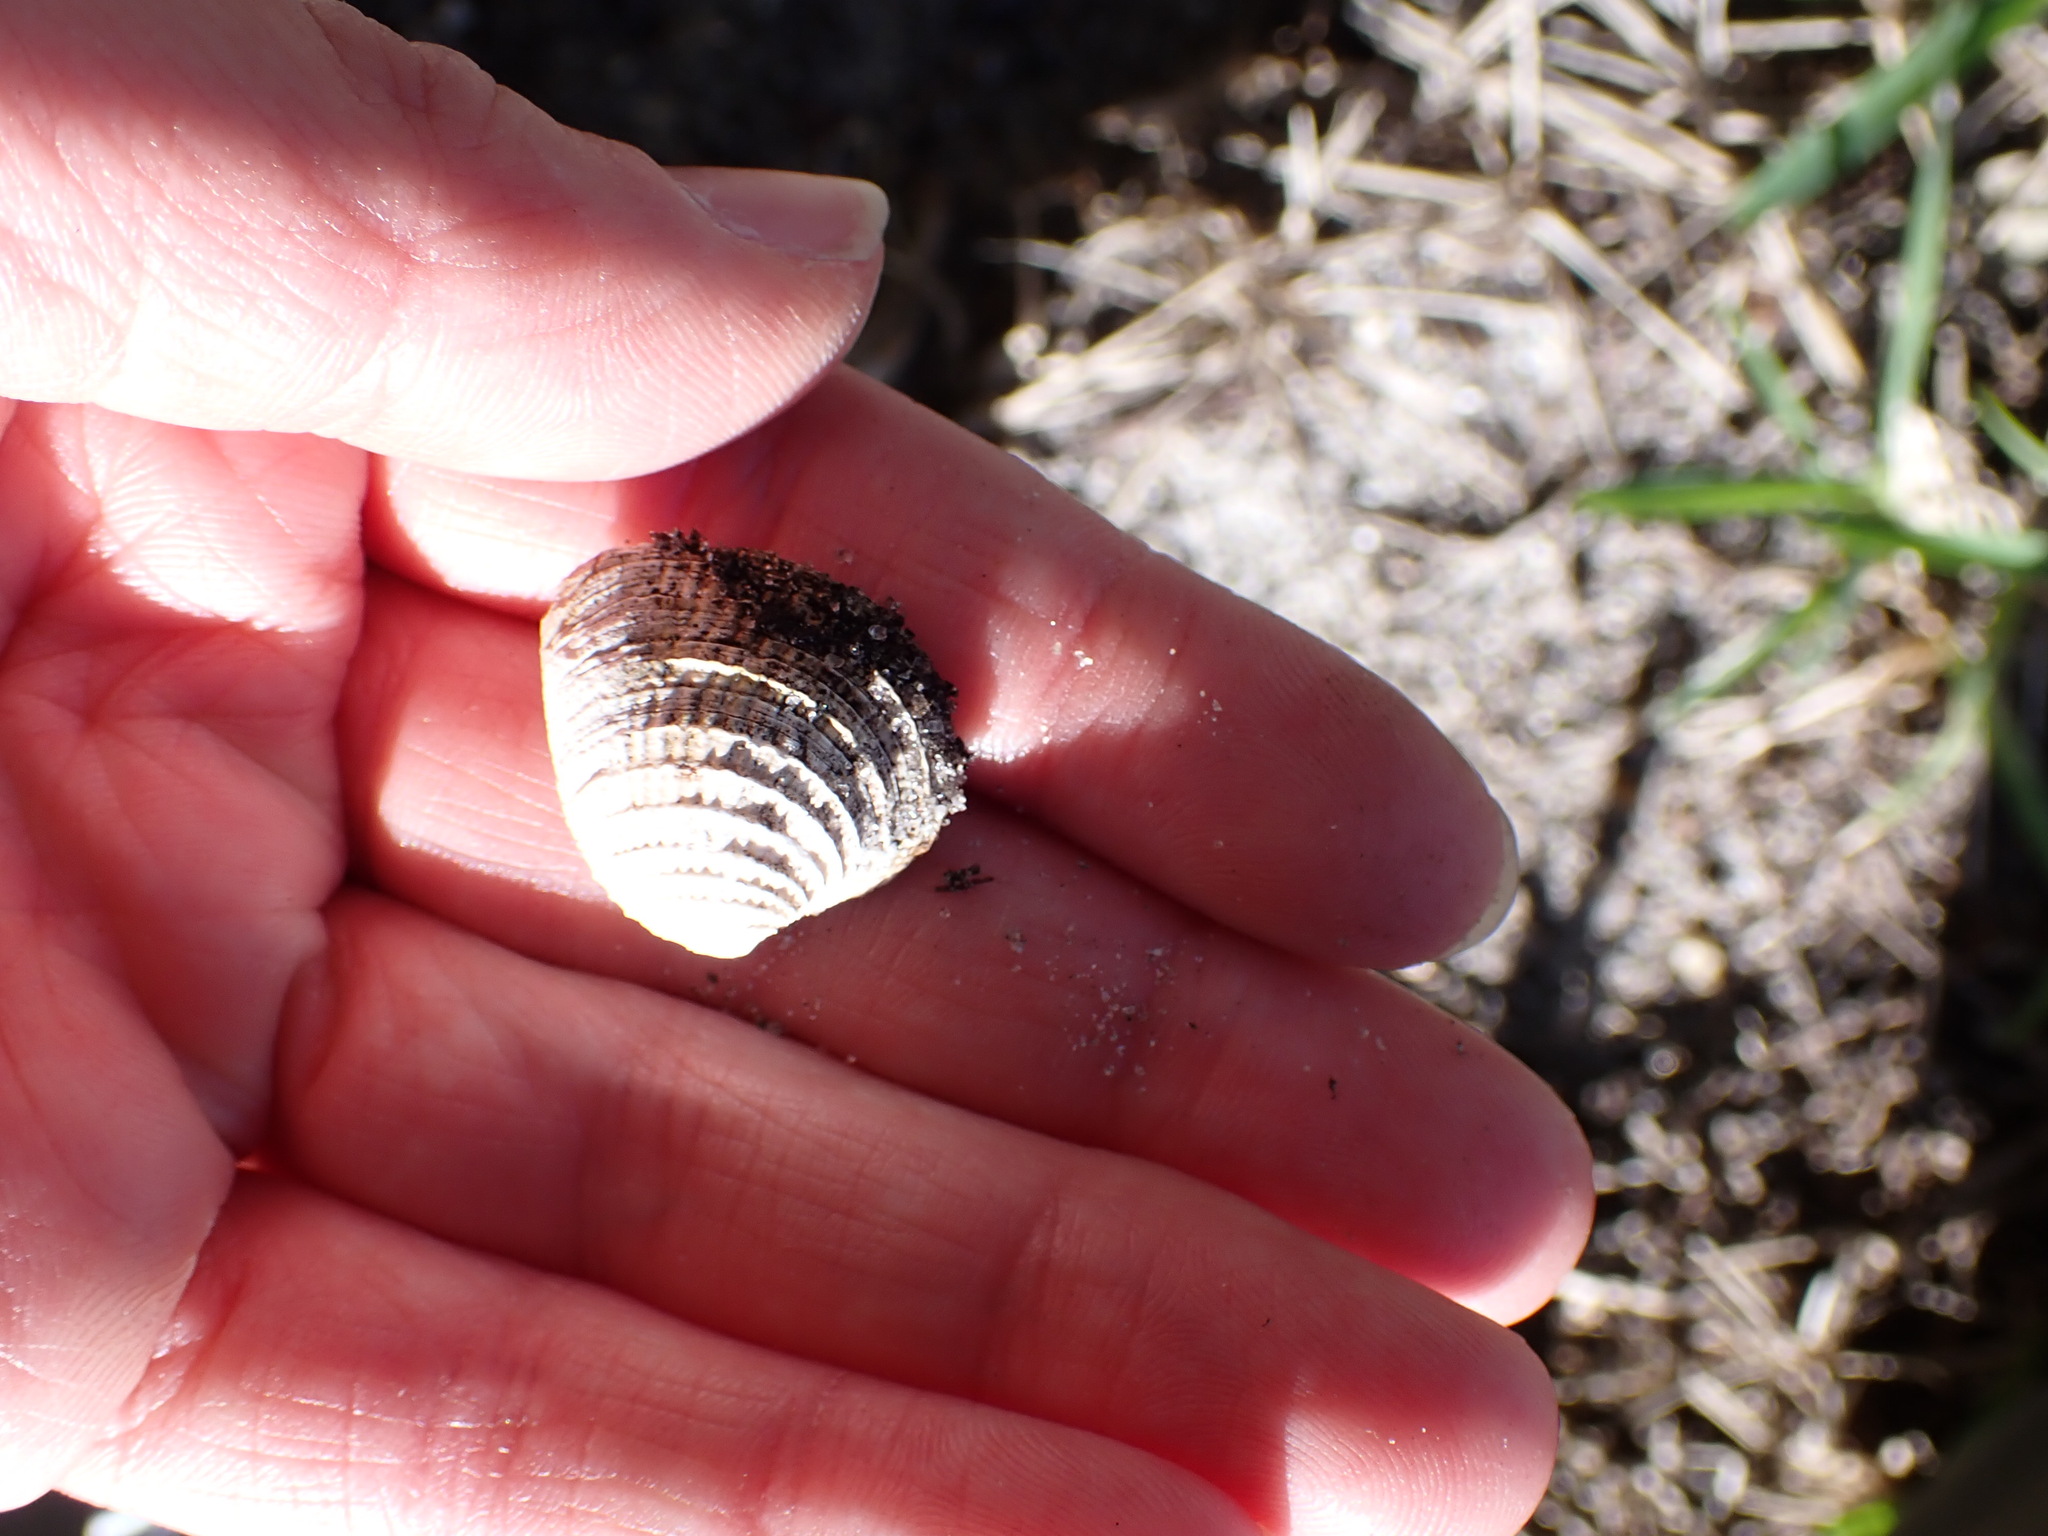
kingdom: Animalia
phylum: Mollusca
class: Bivalvia
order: Venerida
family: Veneridae
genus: Chione
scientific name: Chione elevata
